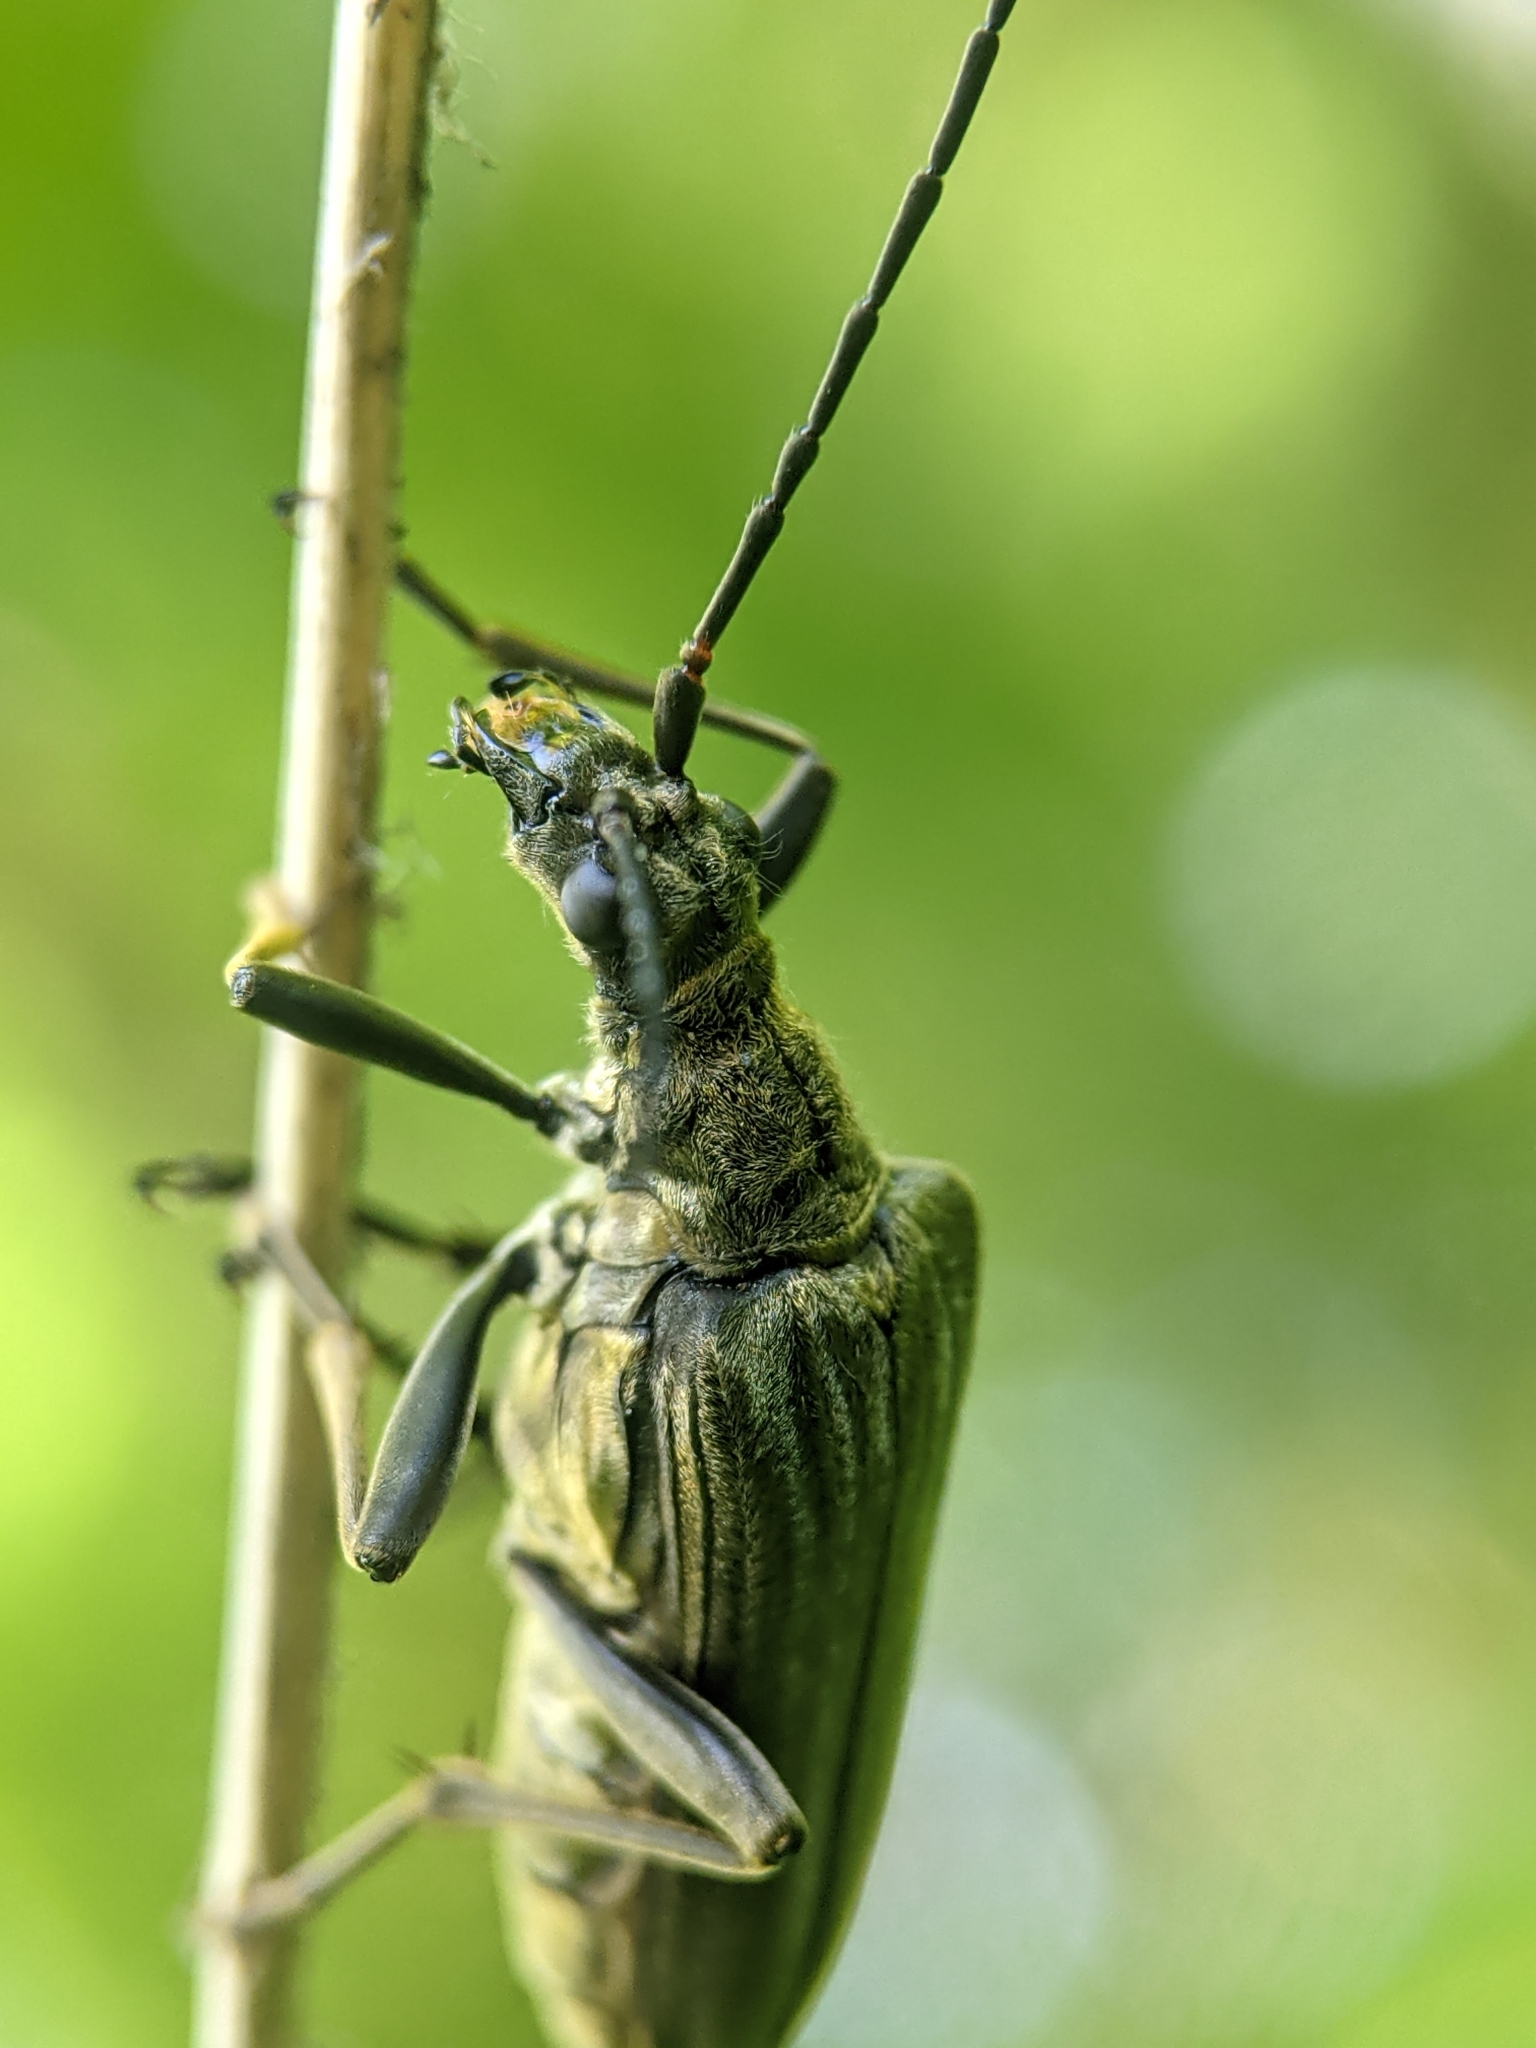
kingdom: Animalia
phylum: Arthropoda
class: Insecta
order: Coleoptera
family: Cerambycidae
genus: Stenocorus
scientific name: Stenocorus meridianus
